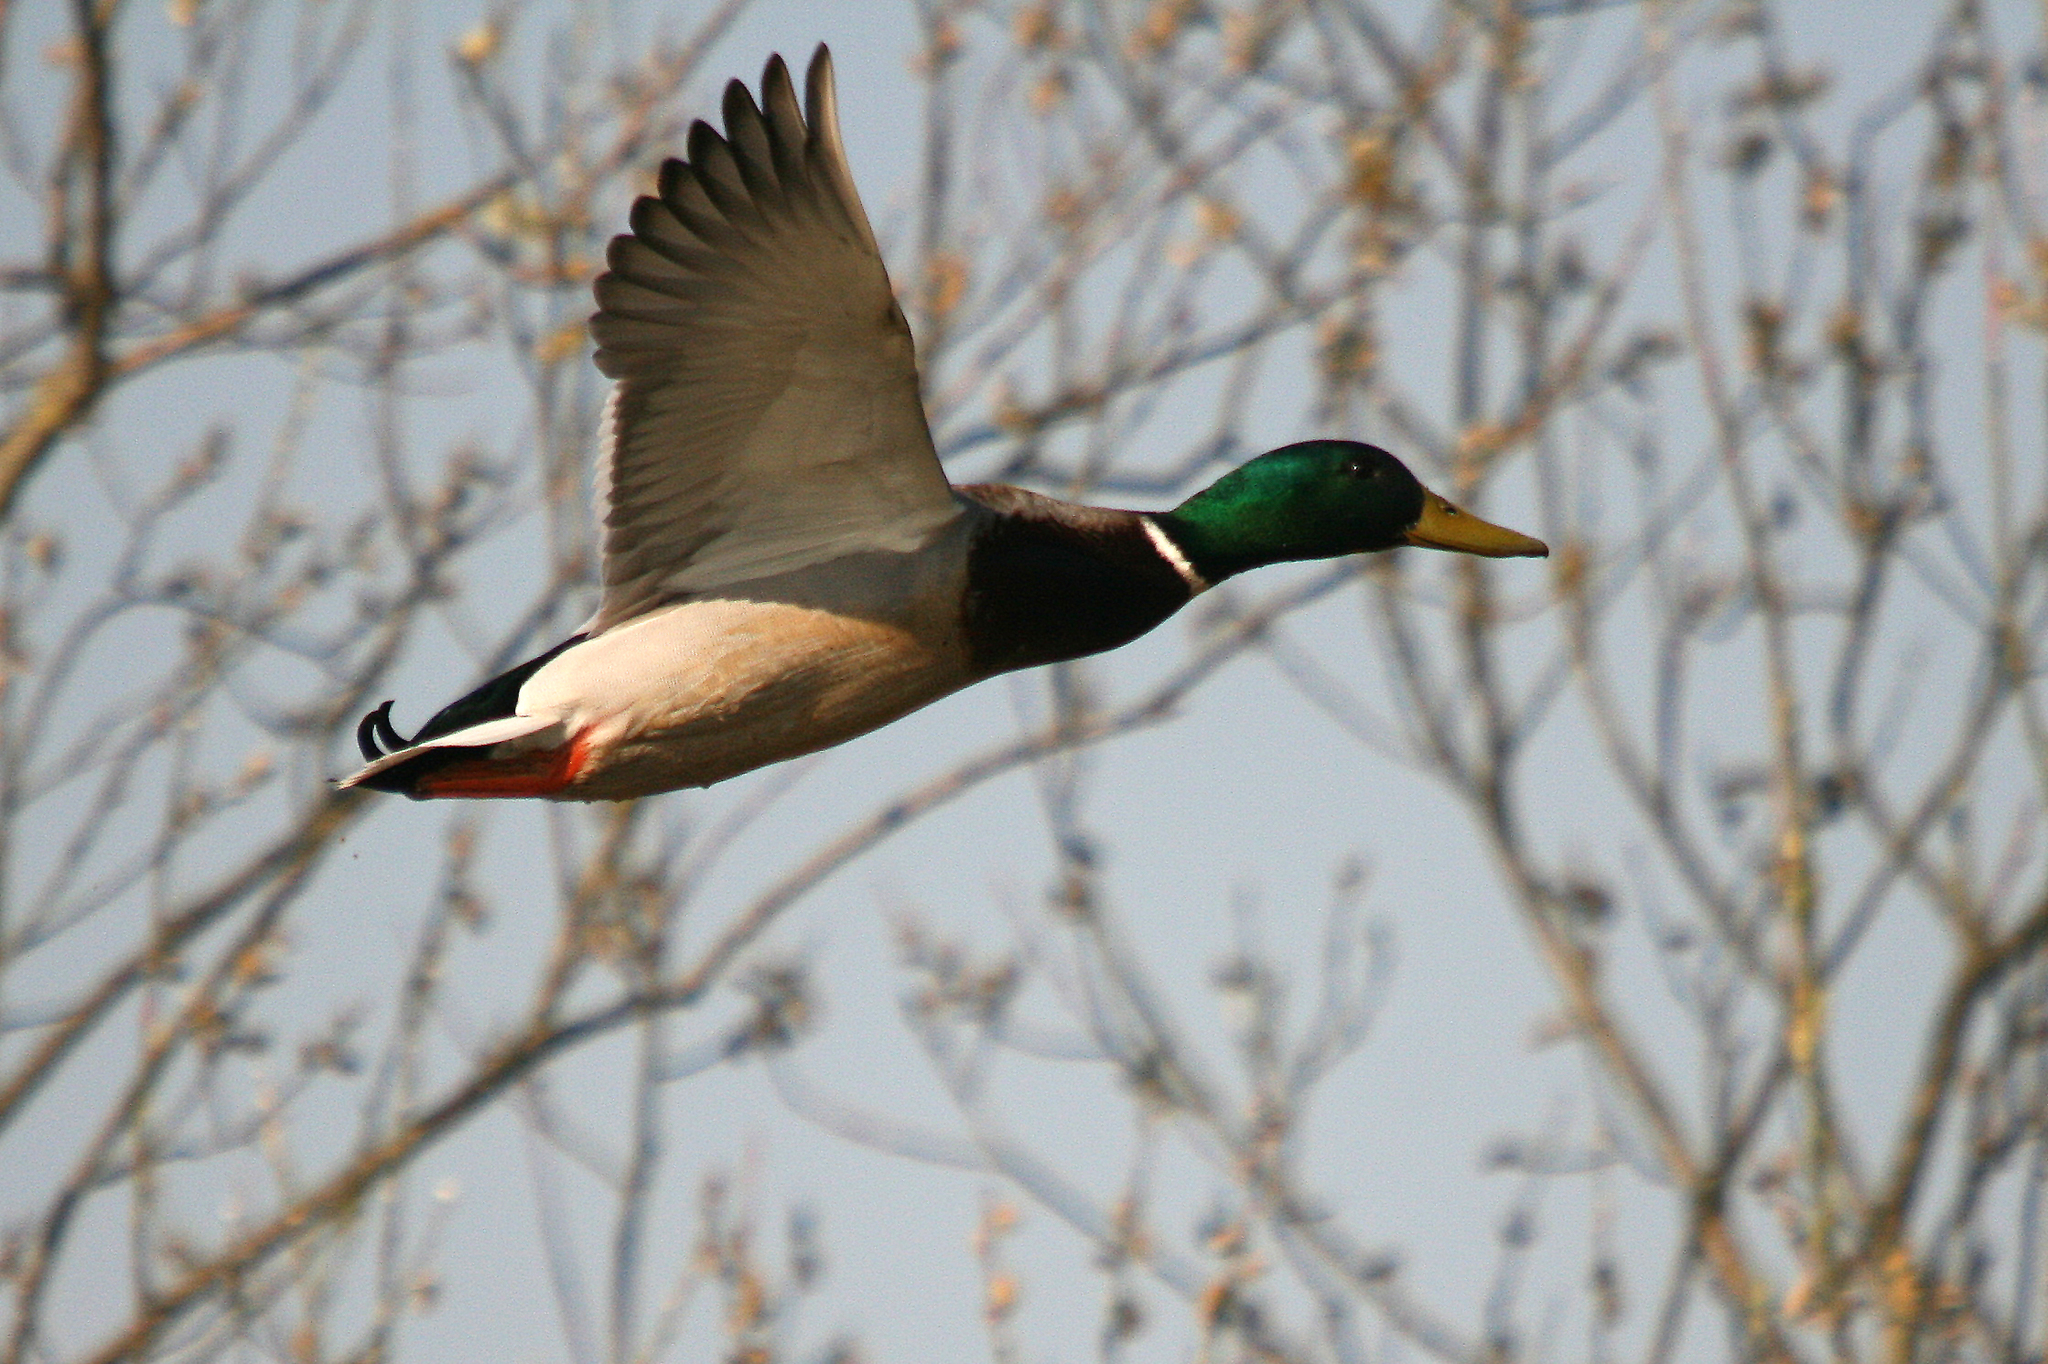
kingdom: Animalia
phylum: Chordata
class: Aves
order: Anseriformes
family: Anatidae
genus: Anas
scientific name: Anas platyrhynchos
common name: Mallard
